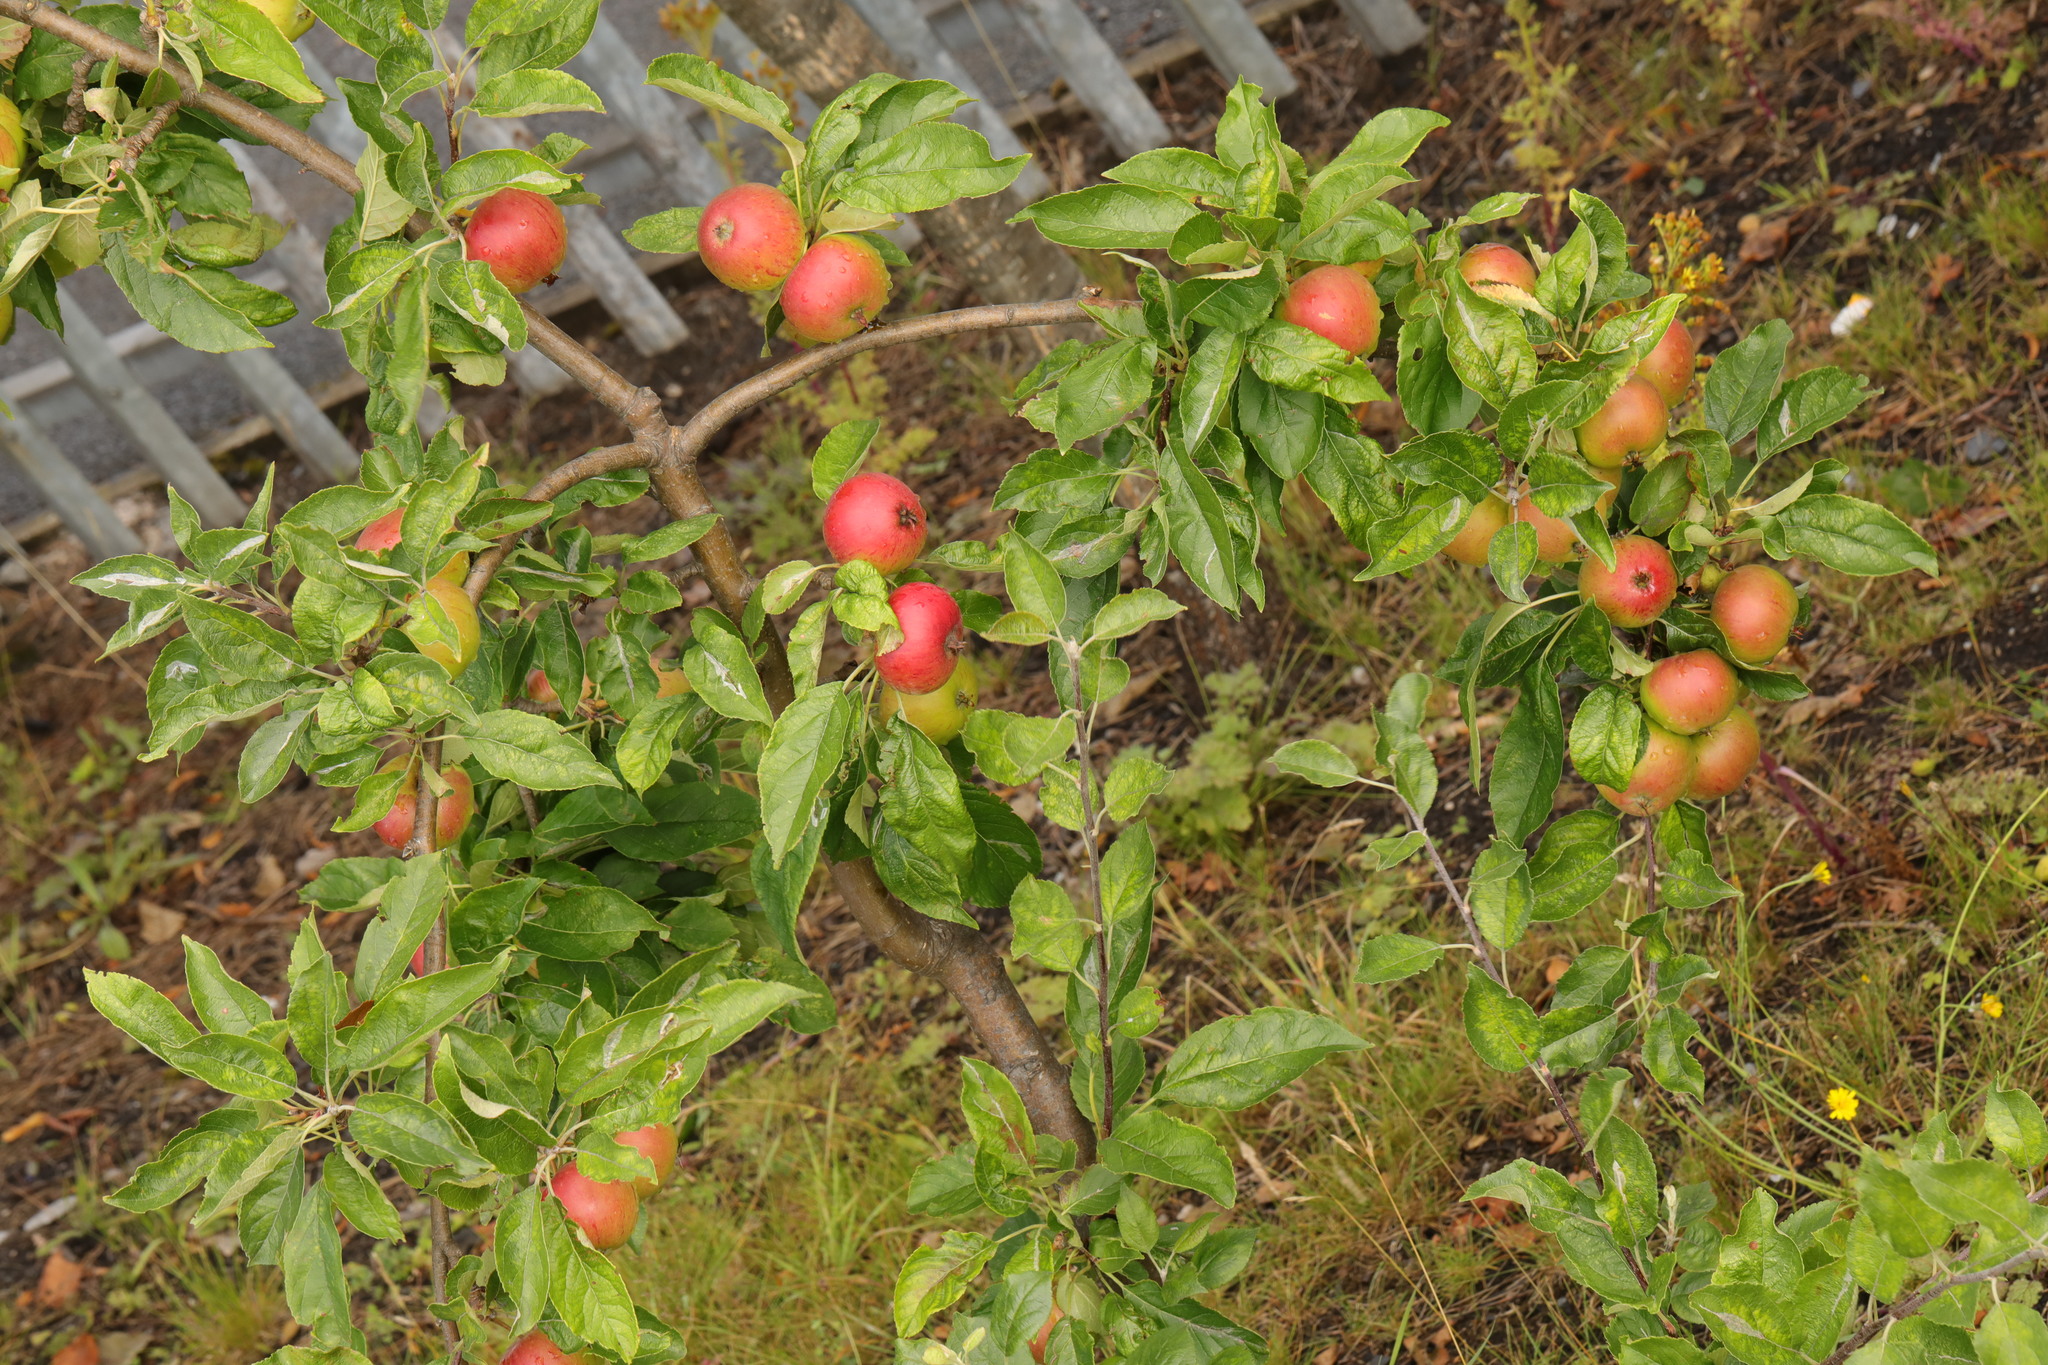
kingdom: Plantae
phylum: Tracheophyta
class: Magnoliopsida
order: Rosales
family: Rosaceae
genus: Malus
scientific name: Malus domestica
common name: Apple
